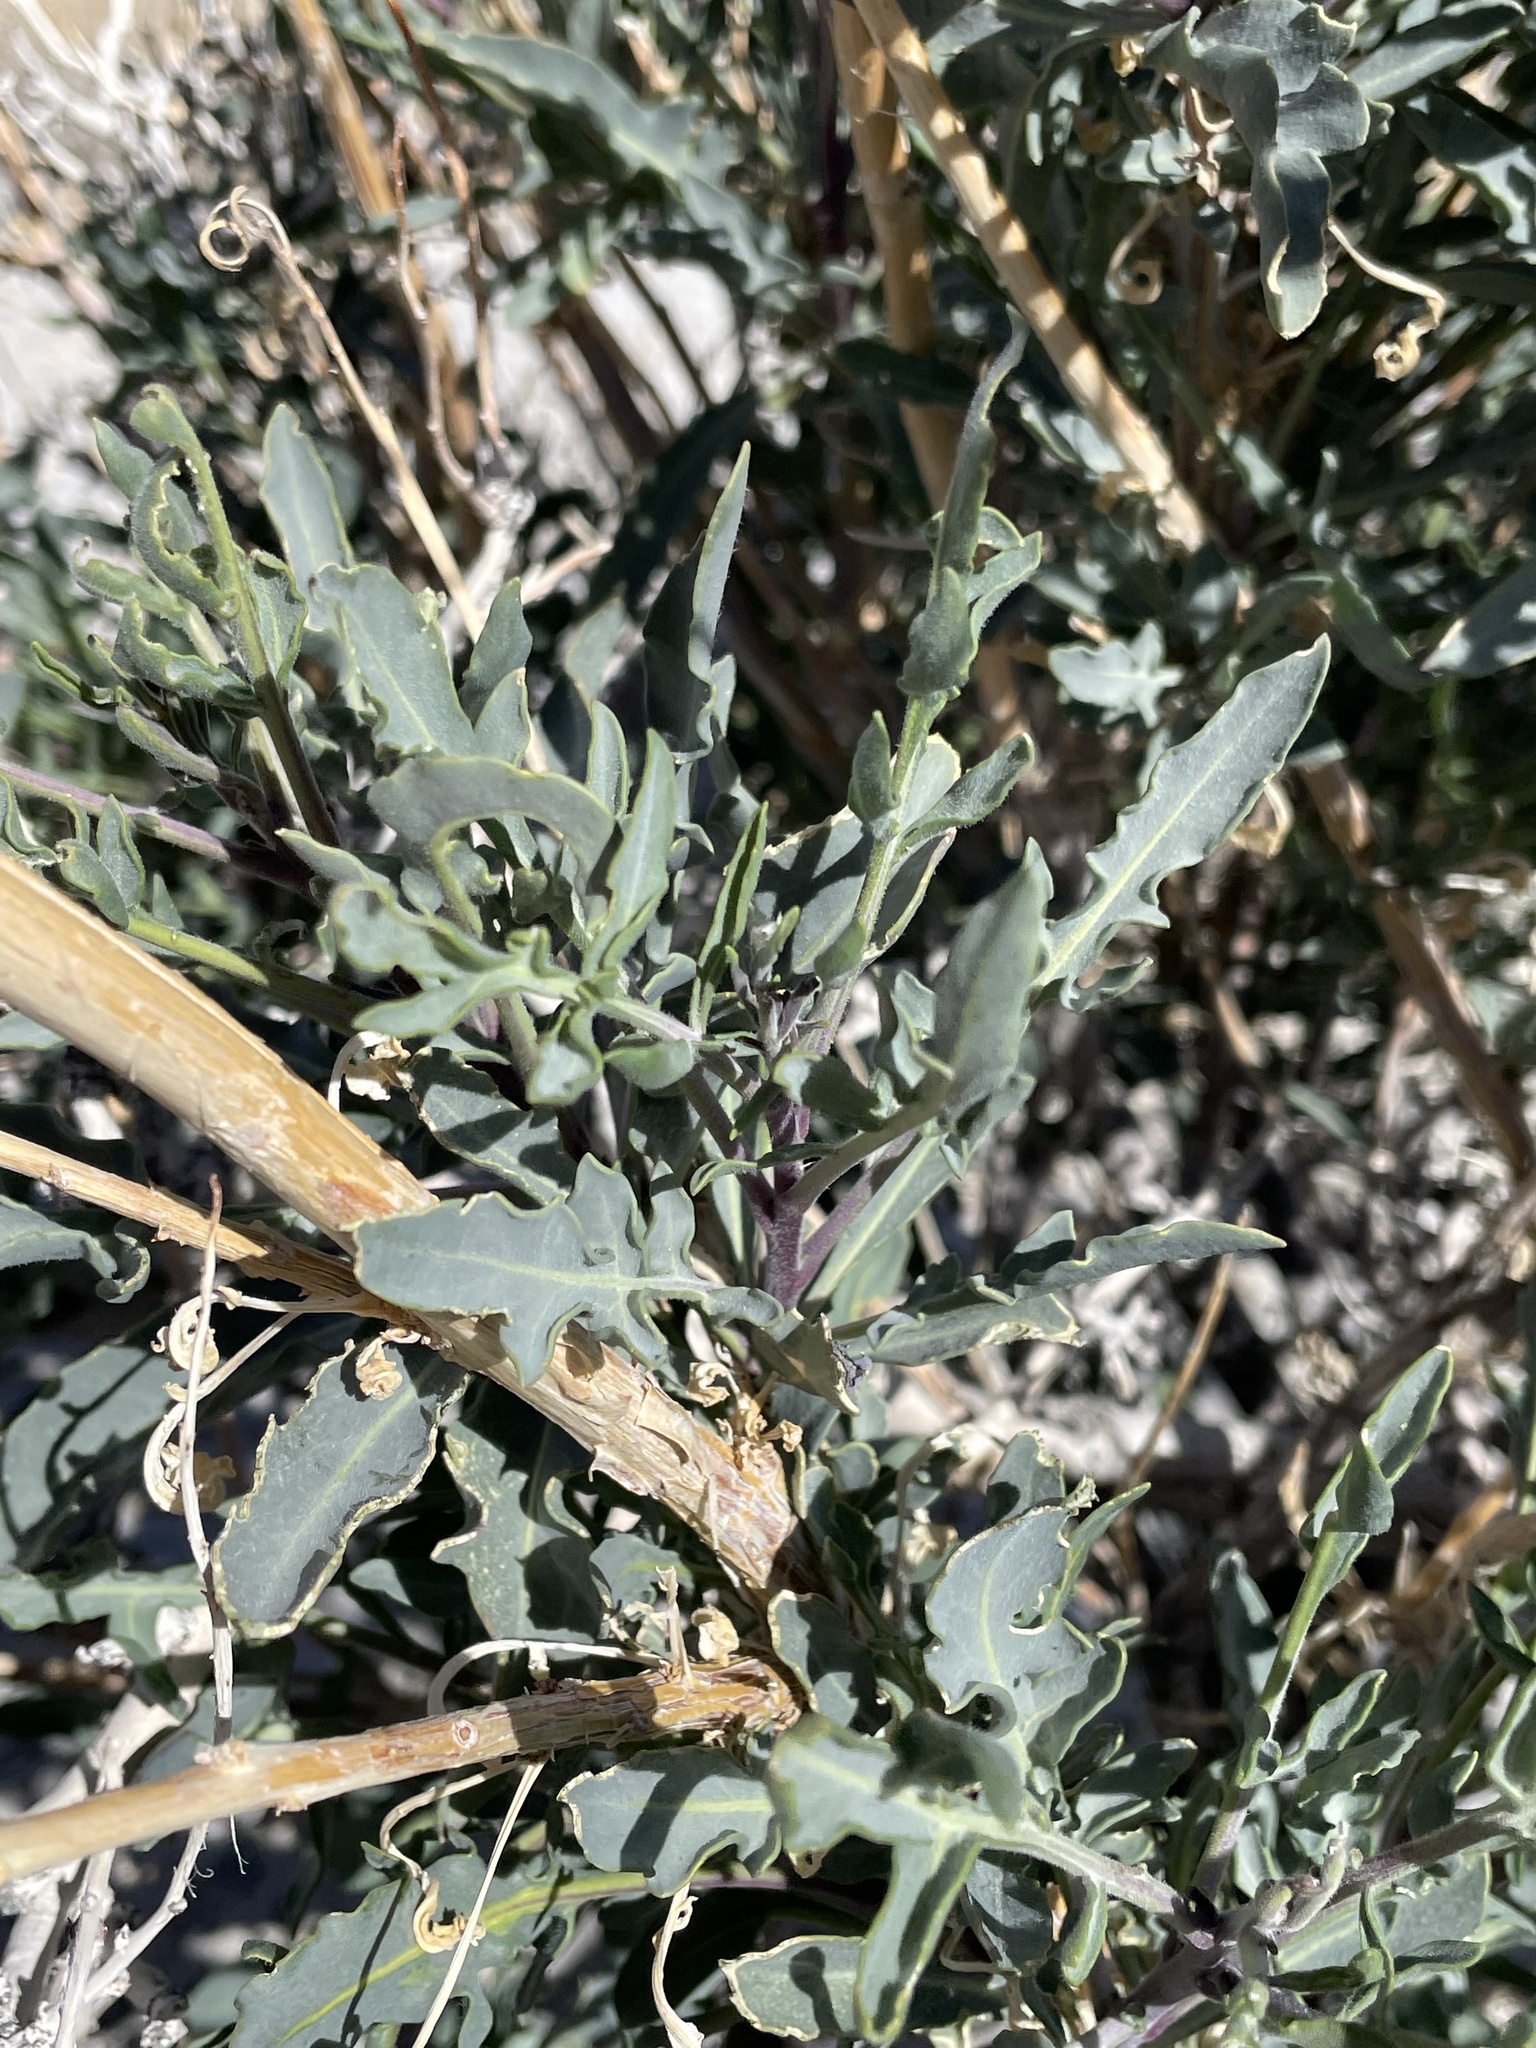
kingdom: Plantae
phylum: Tracheophyta
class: Magnoliopsida
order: Brassicales
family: Brassicaceae
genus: Stanleya
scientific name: Stanleya pinnata
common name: Prince's-plume
